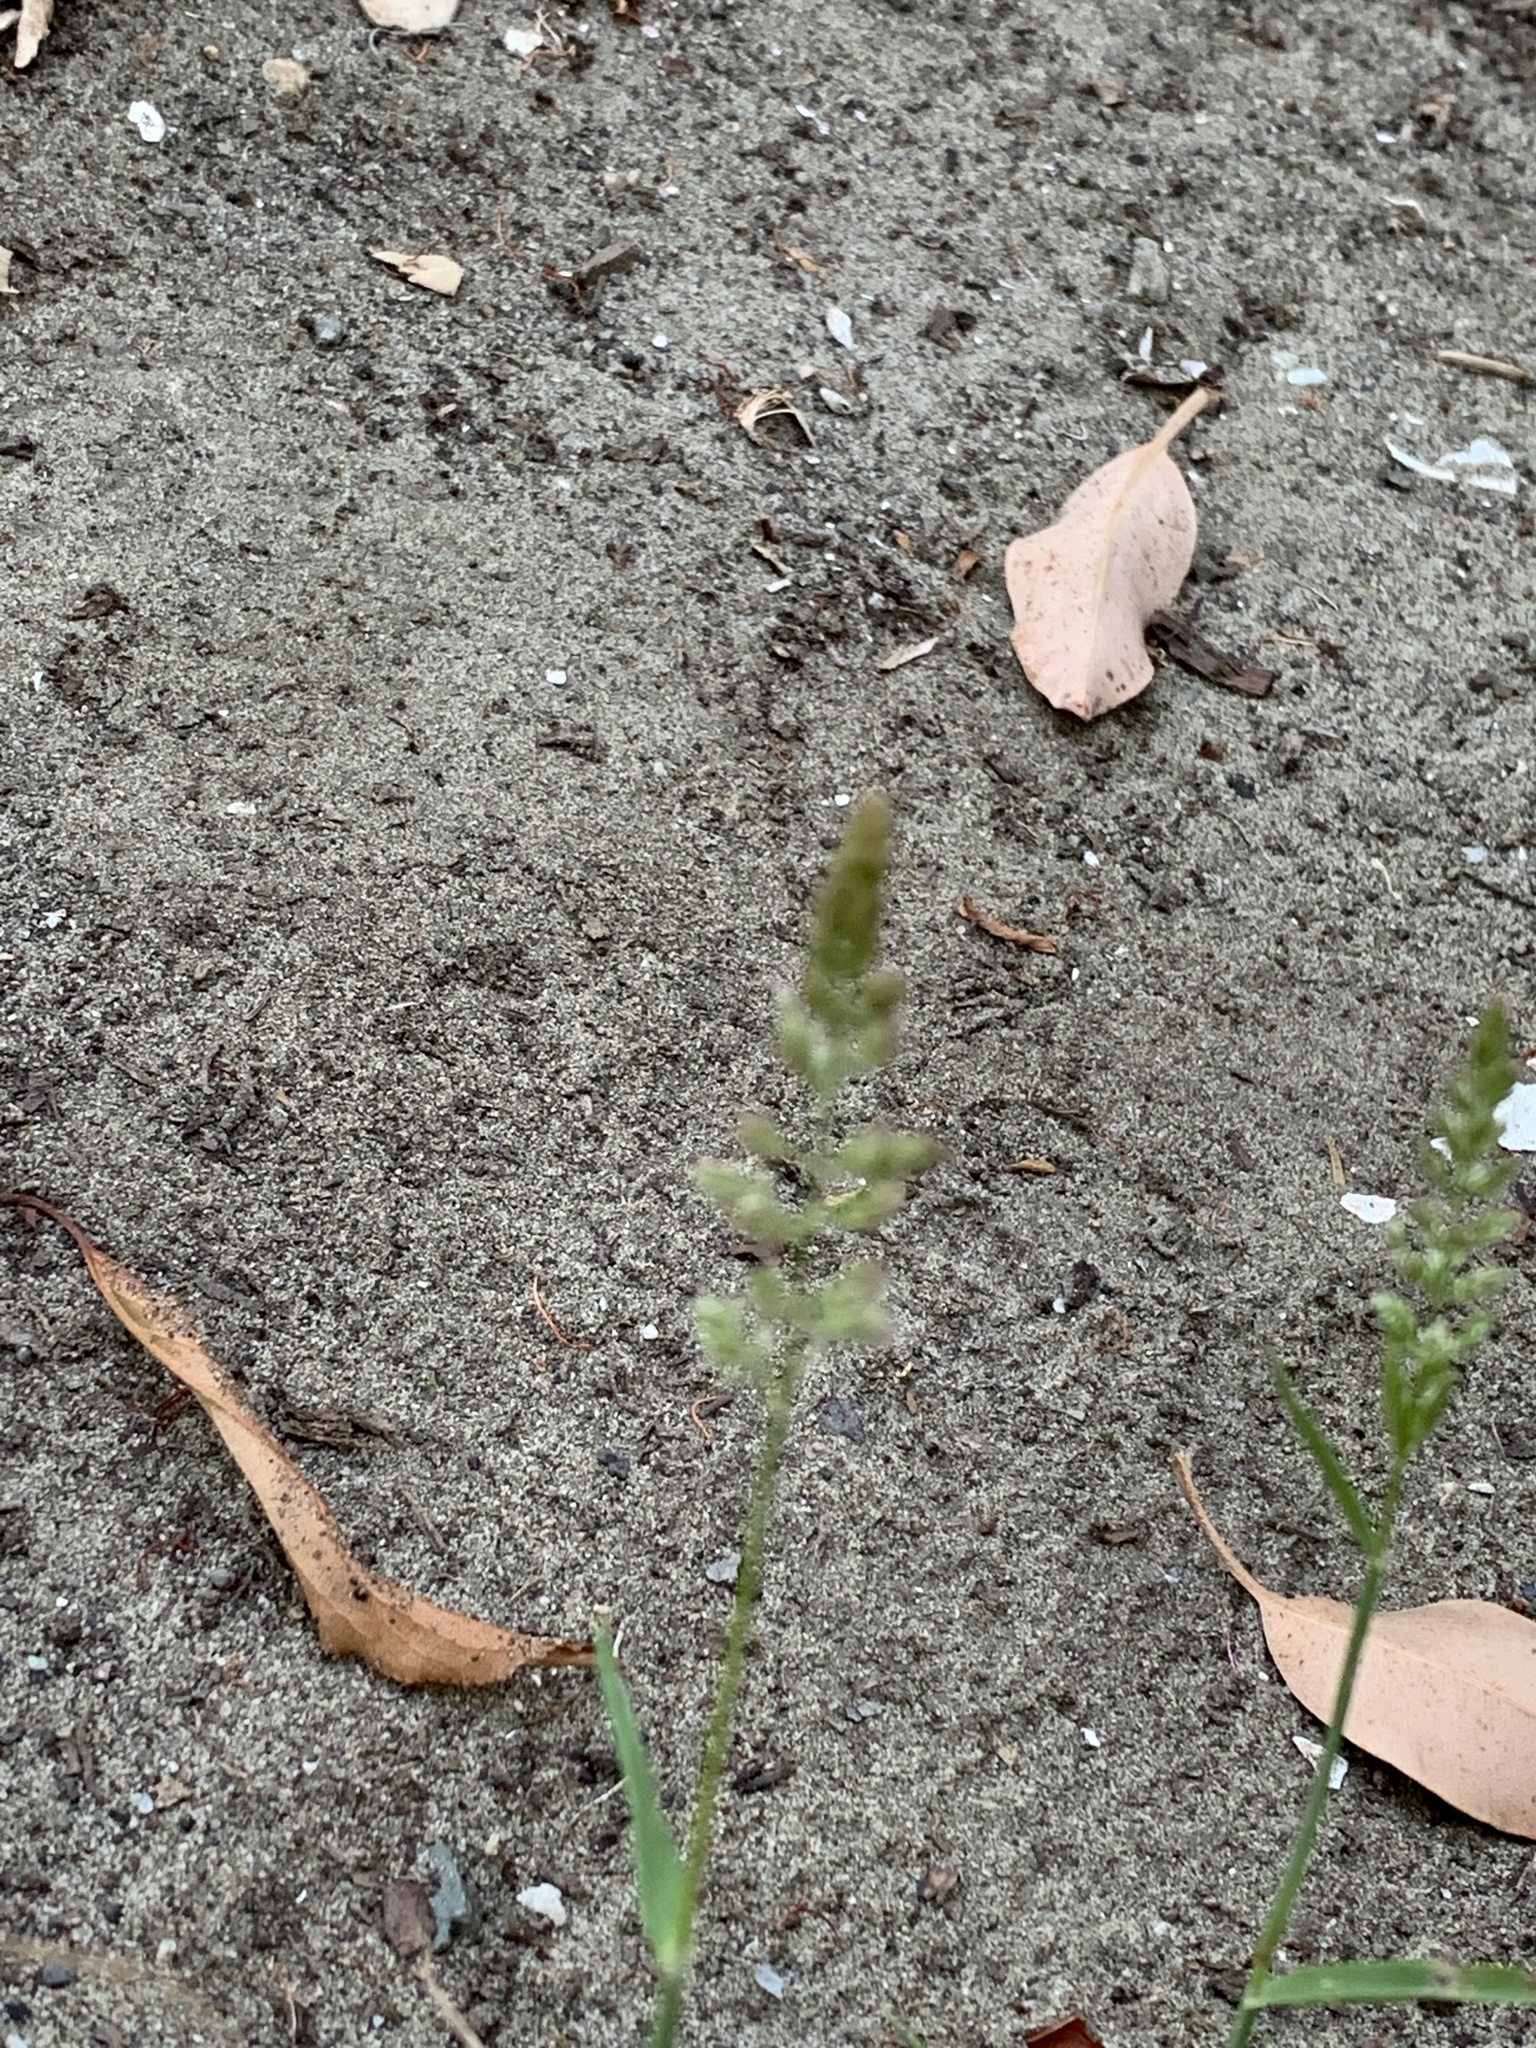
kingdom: Plantae
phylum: Tracheophyta
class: Liliopsida
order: Poales
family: Poaceae
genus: Polypogon
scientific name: Polypogon viridis
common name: Water bent
